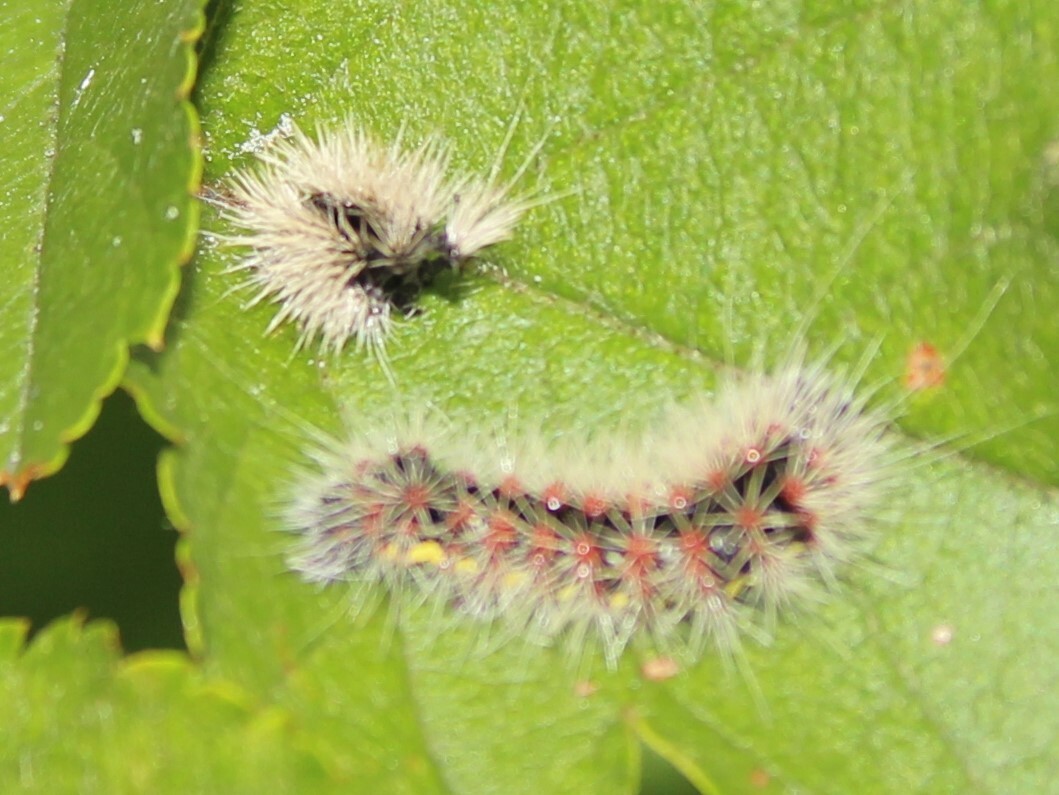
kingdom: Animalia
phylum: Arthropoda
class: Insecta
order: Lepidoptera
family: Noctuidae
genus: Acronicta
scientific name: Acronicta oblinita
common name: Smeared dagger
